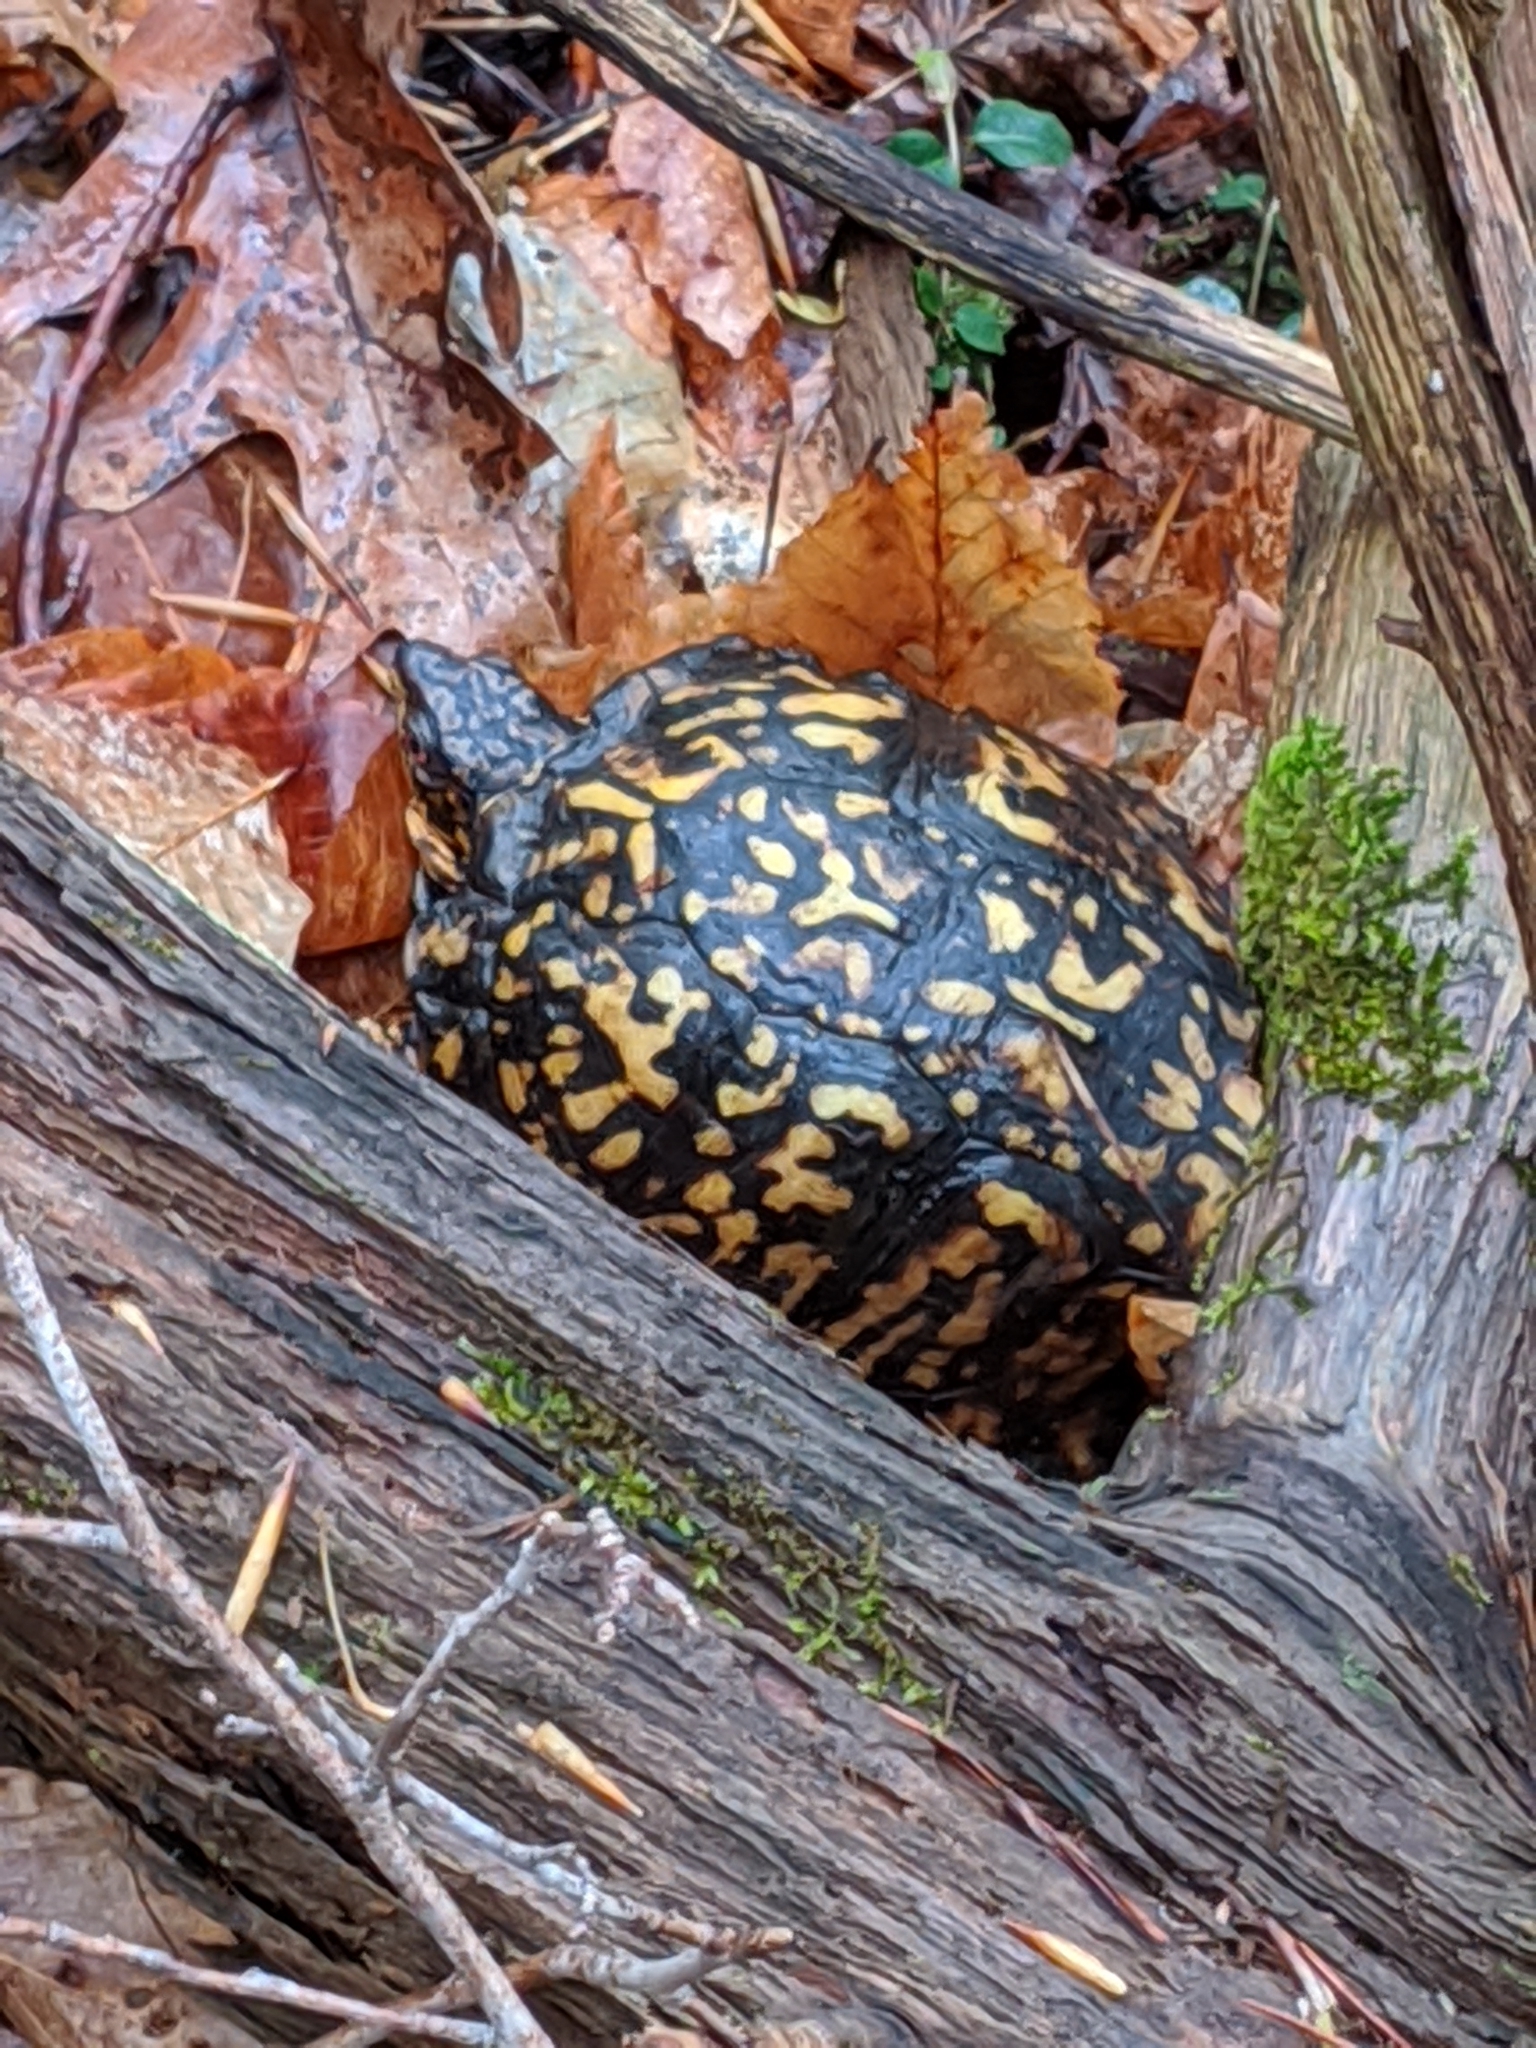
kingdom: Animalia
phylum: Chordata
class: Testudines
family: Emydidae
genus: Terrapene
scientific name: Terrapene carolina
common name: Common box turtle
